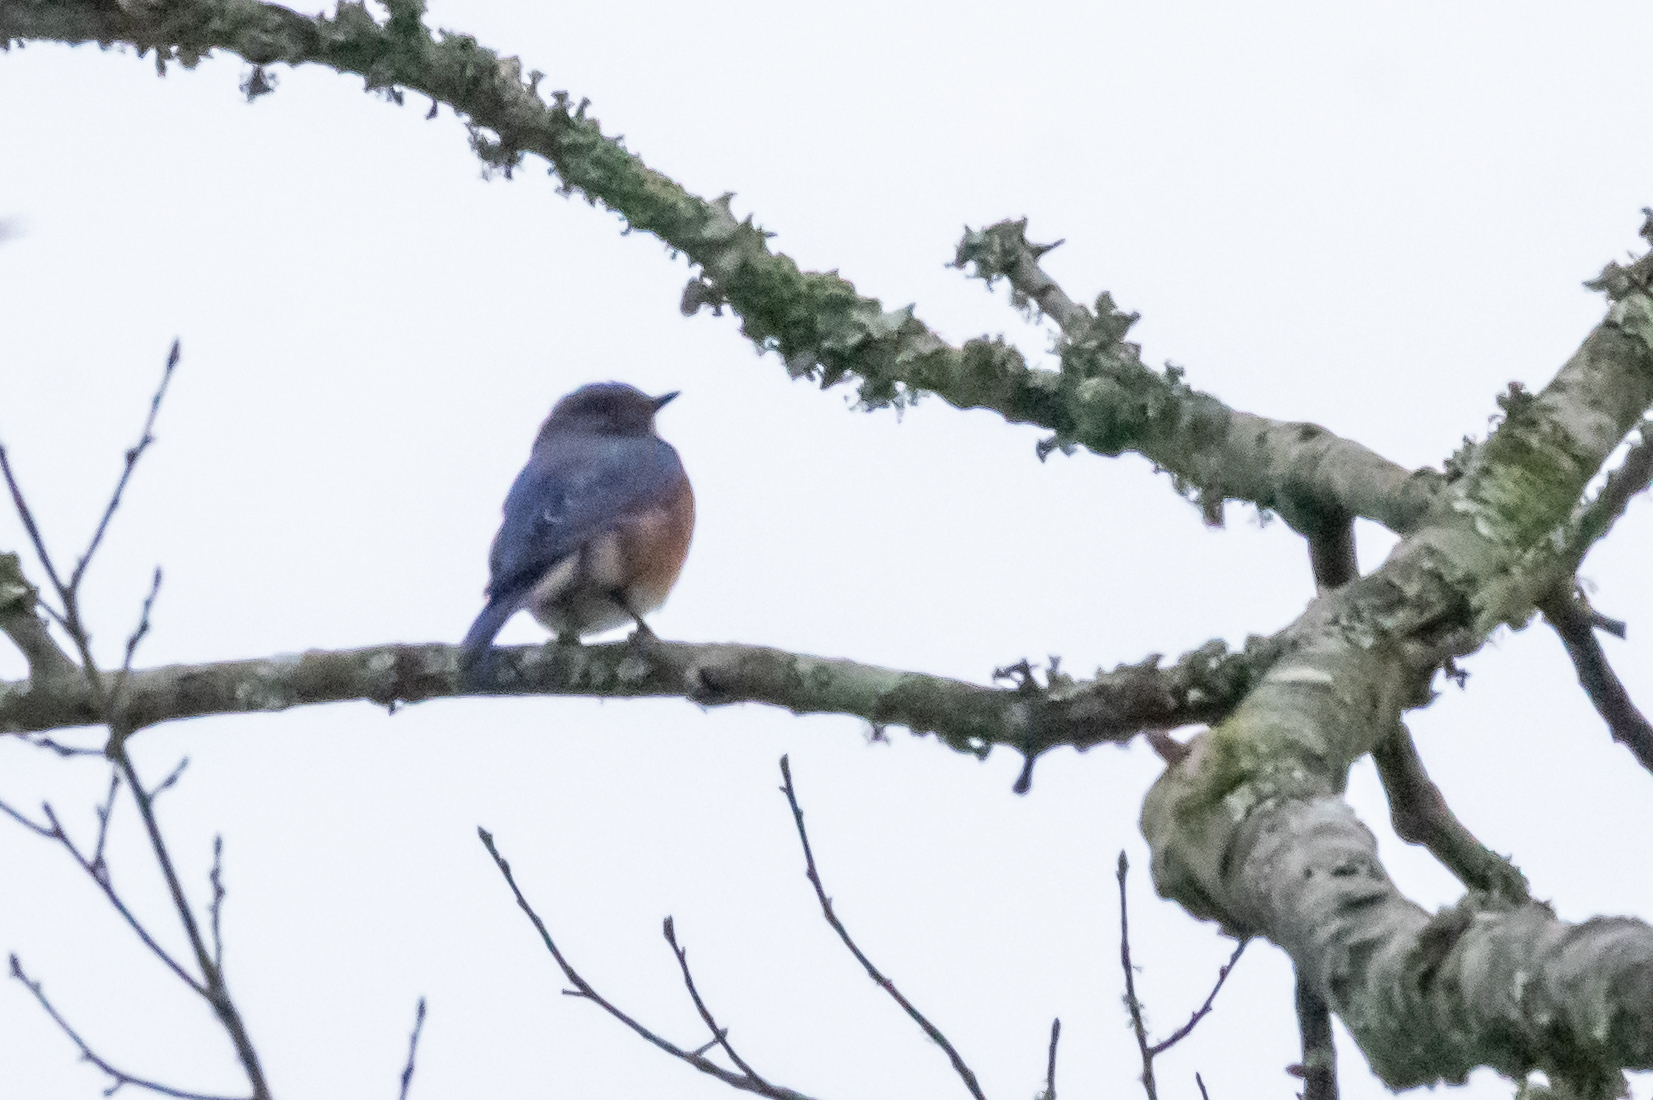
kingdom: Animalia
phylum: Chordata
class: Aves
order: Passeriformes
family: Turdidae
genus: Sialia
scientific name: Sialia sialis
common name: Eastern bluebird
